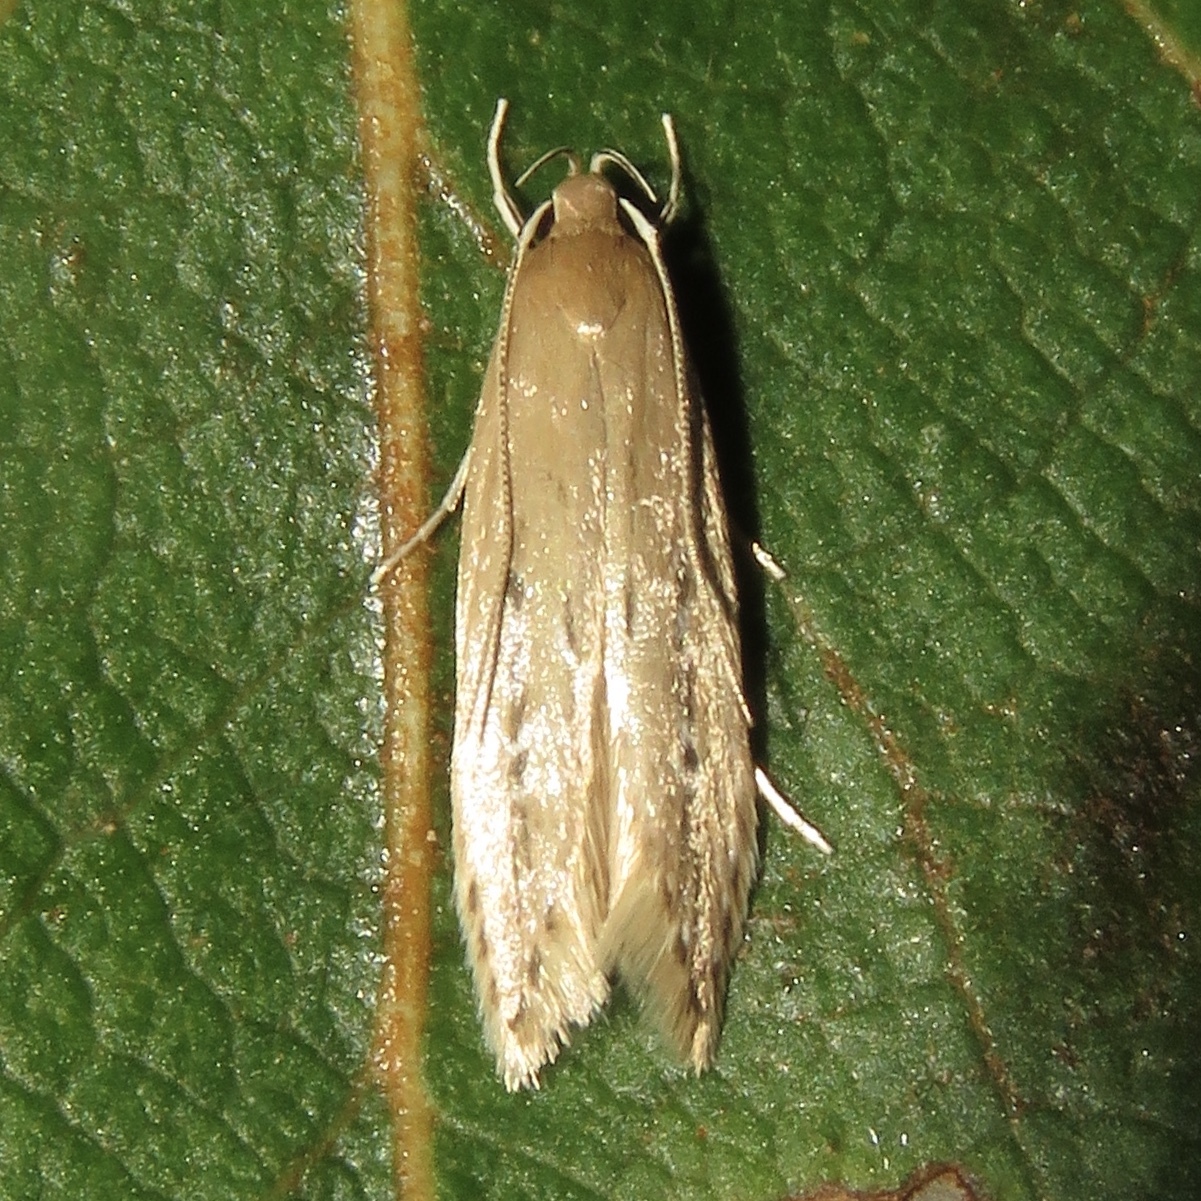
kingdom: Animalia
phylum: Arthropoda
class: Insecta
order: Lepidoptera
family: Cosmopterigidae
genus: Limnaecia
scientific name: Limnaecia phragmitella
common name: Bulrush cosmet
